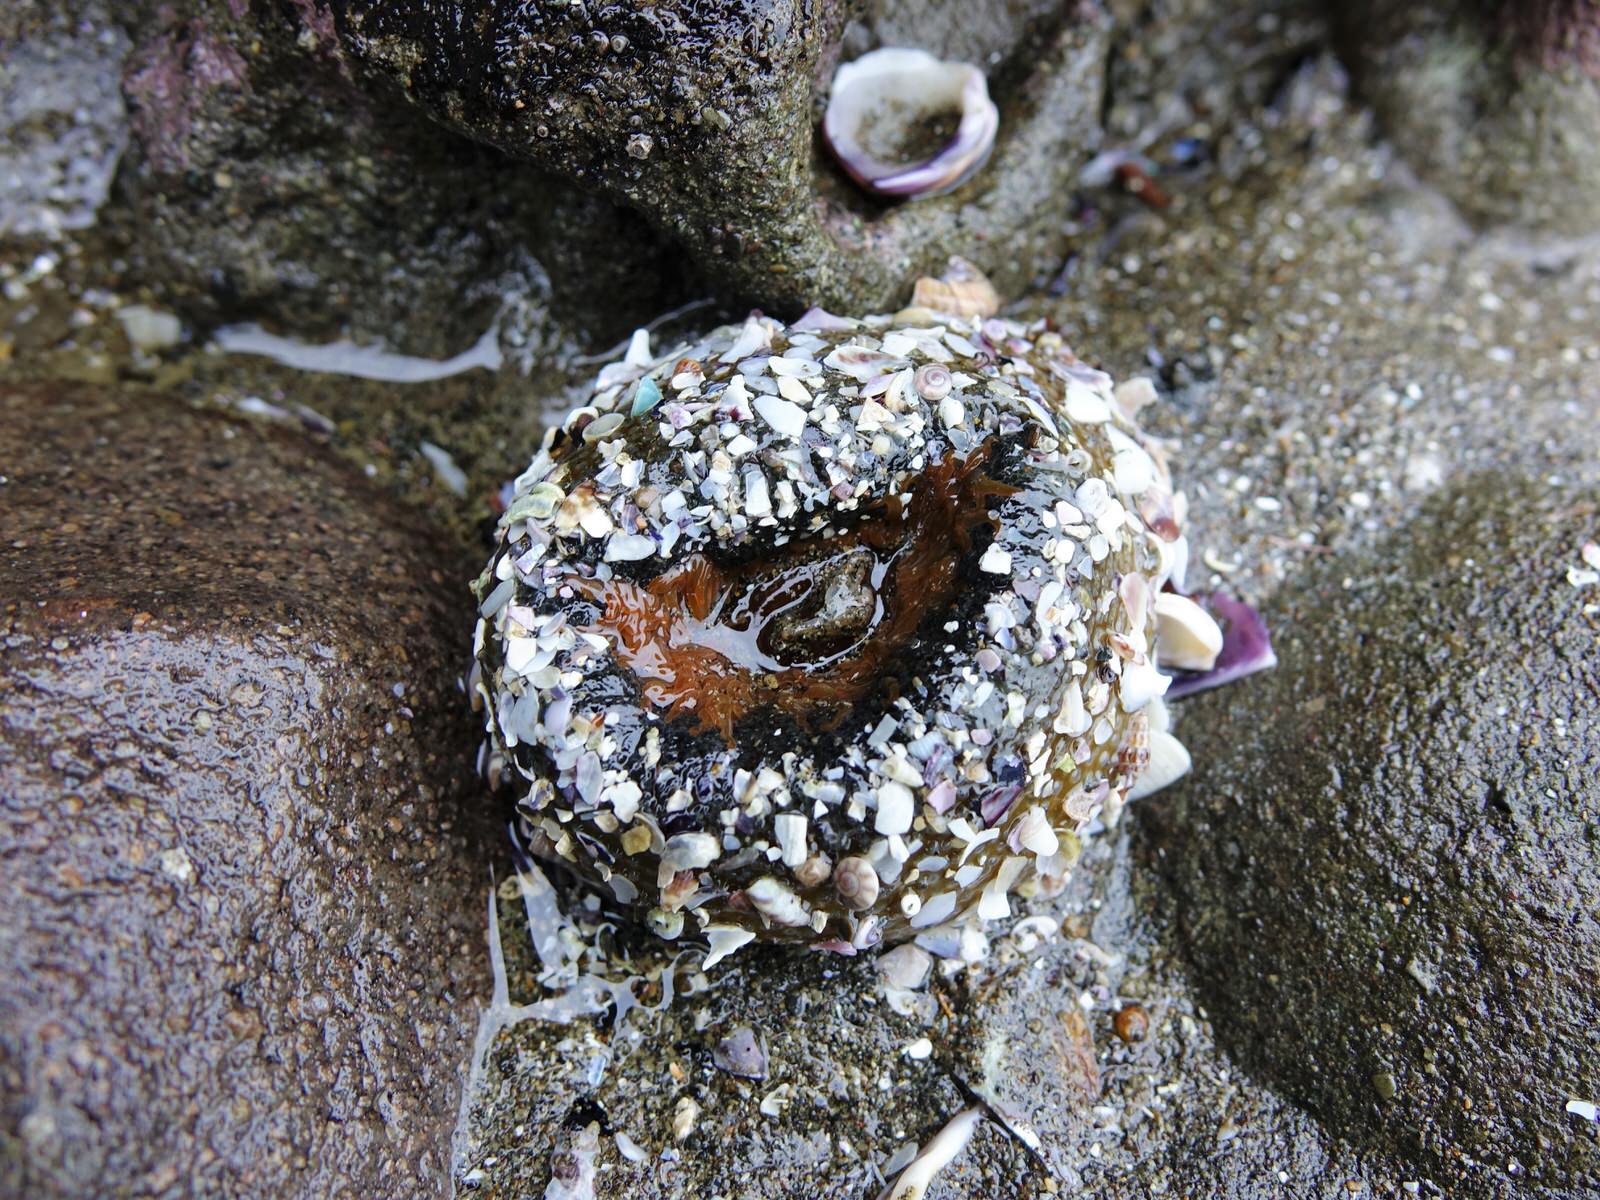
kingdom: Animalia
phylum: Cnidaria
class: Anthozoa
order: Actiniaria
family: Actiniidae
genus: Oulactis
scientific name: Oulactis magna
